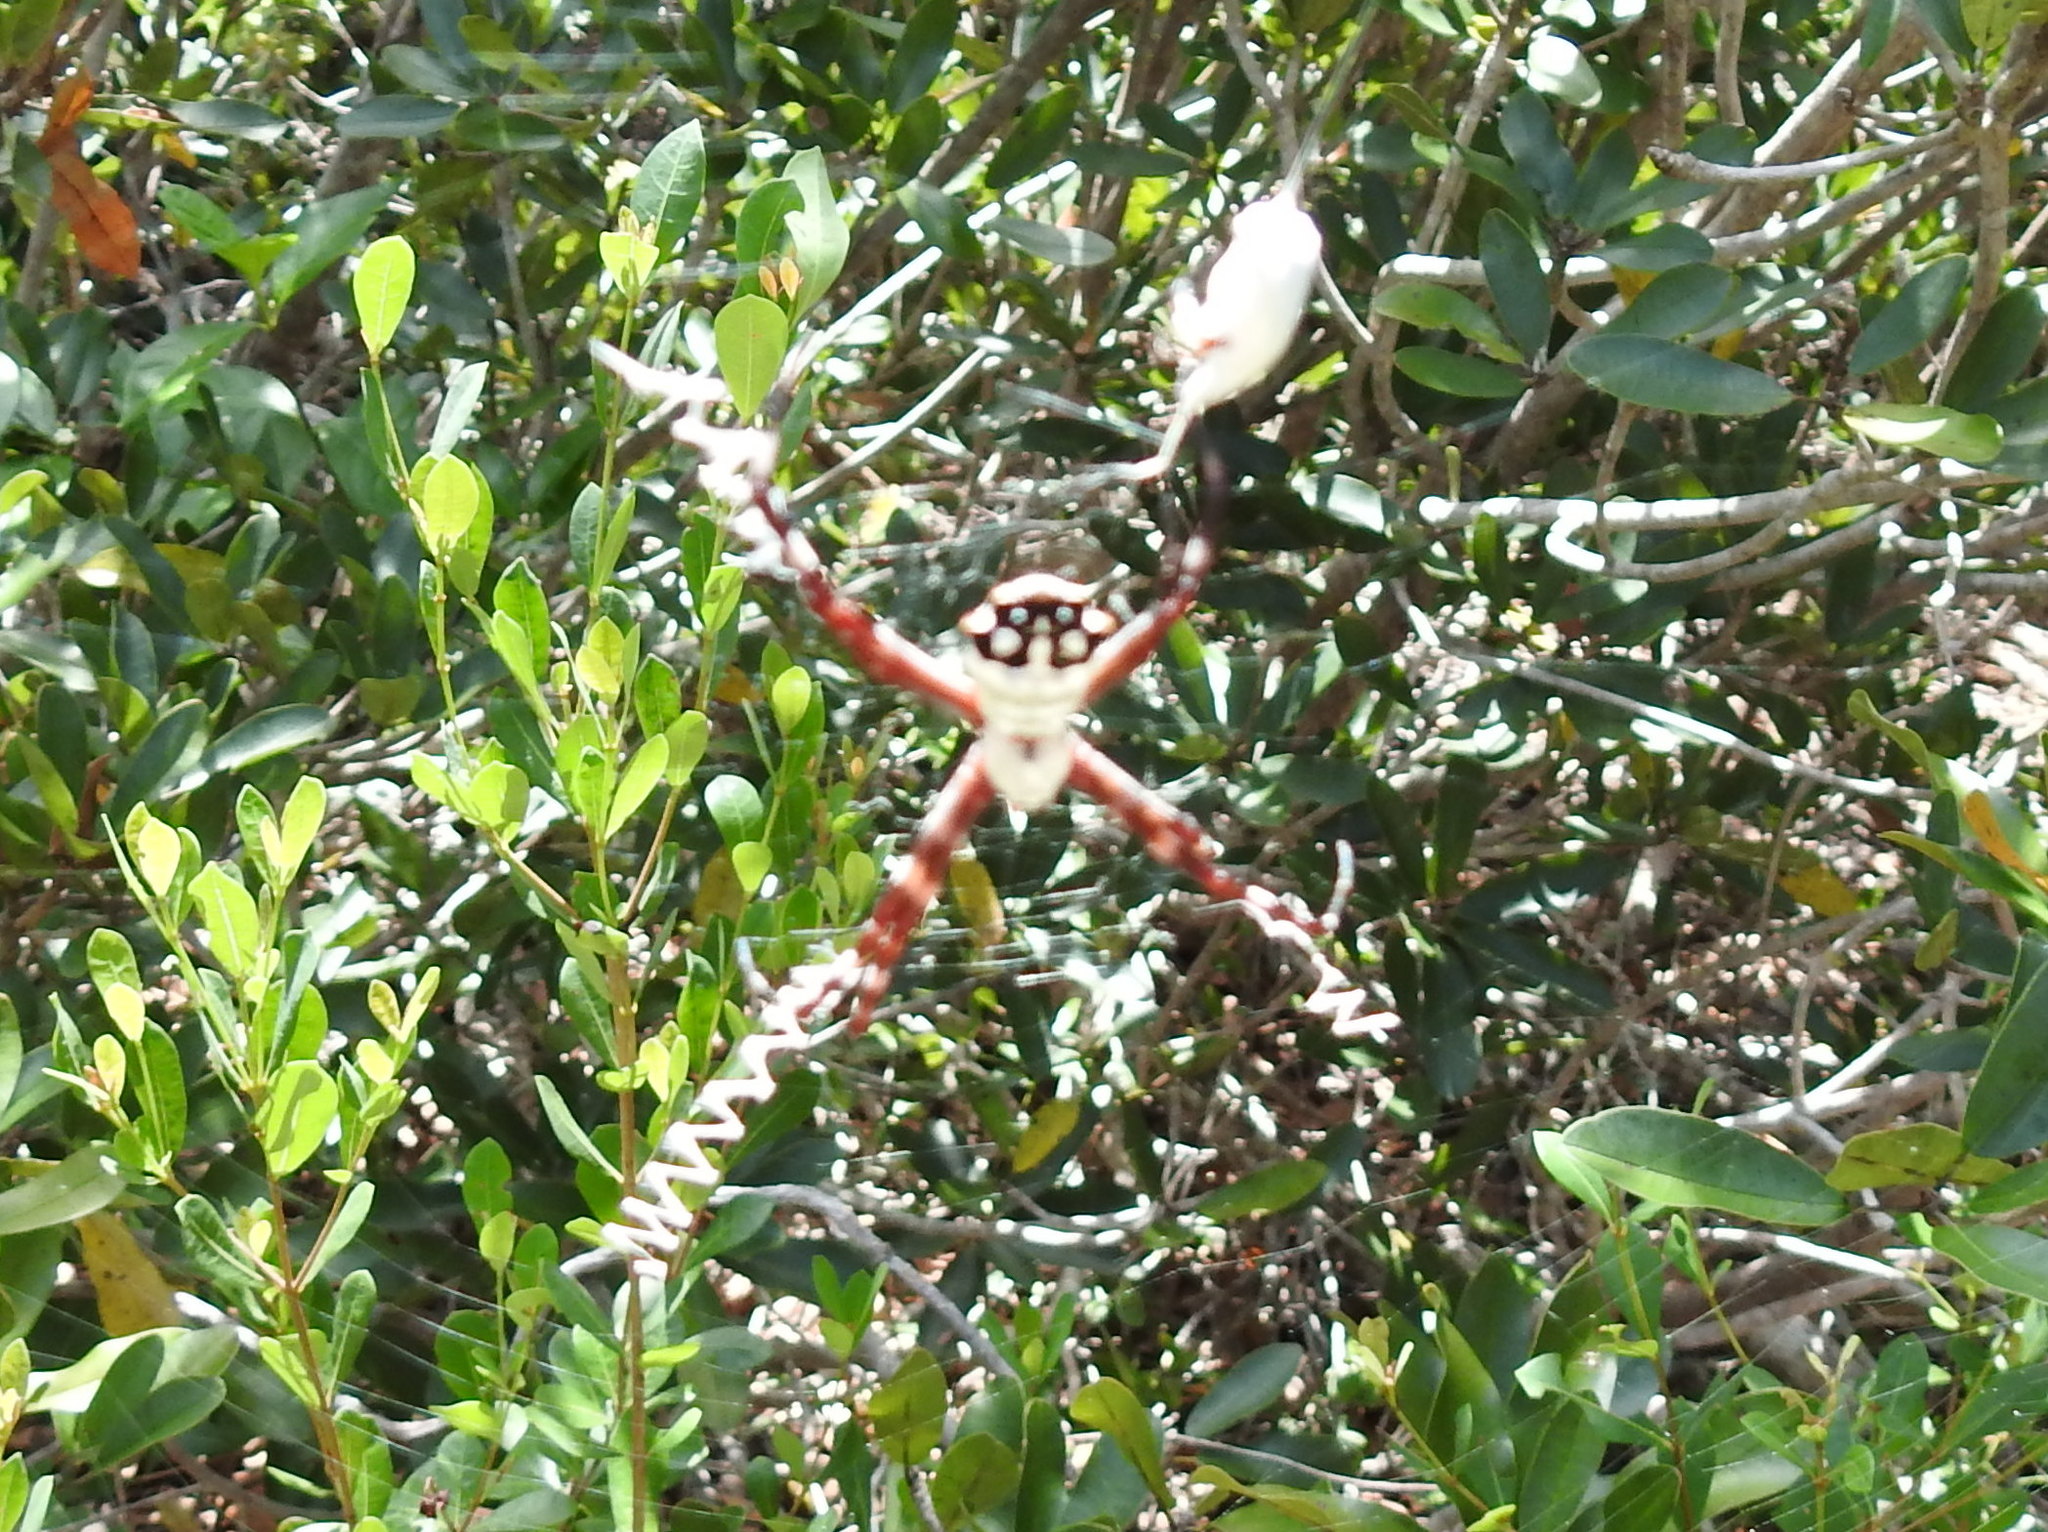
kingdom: Animalia
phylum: Arthropoda
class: Arachnida
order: Araneae
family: Araneidae
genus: Argiope
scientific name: Argiope argentata
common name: Orb weavers
